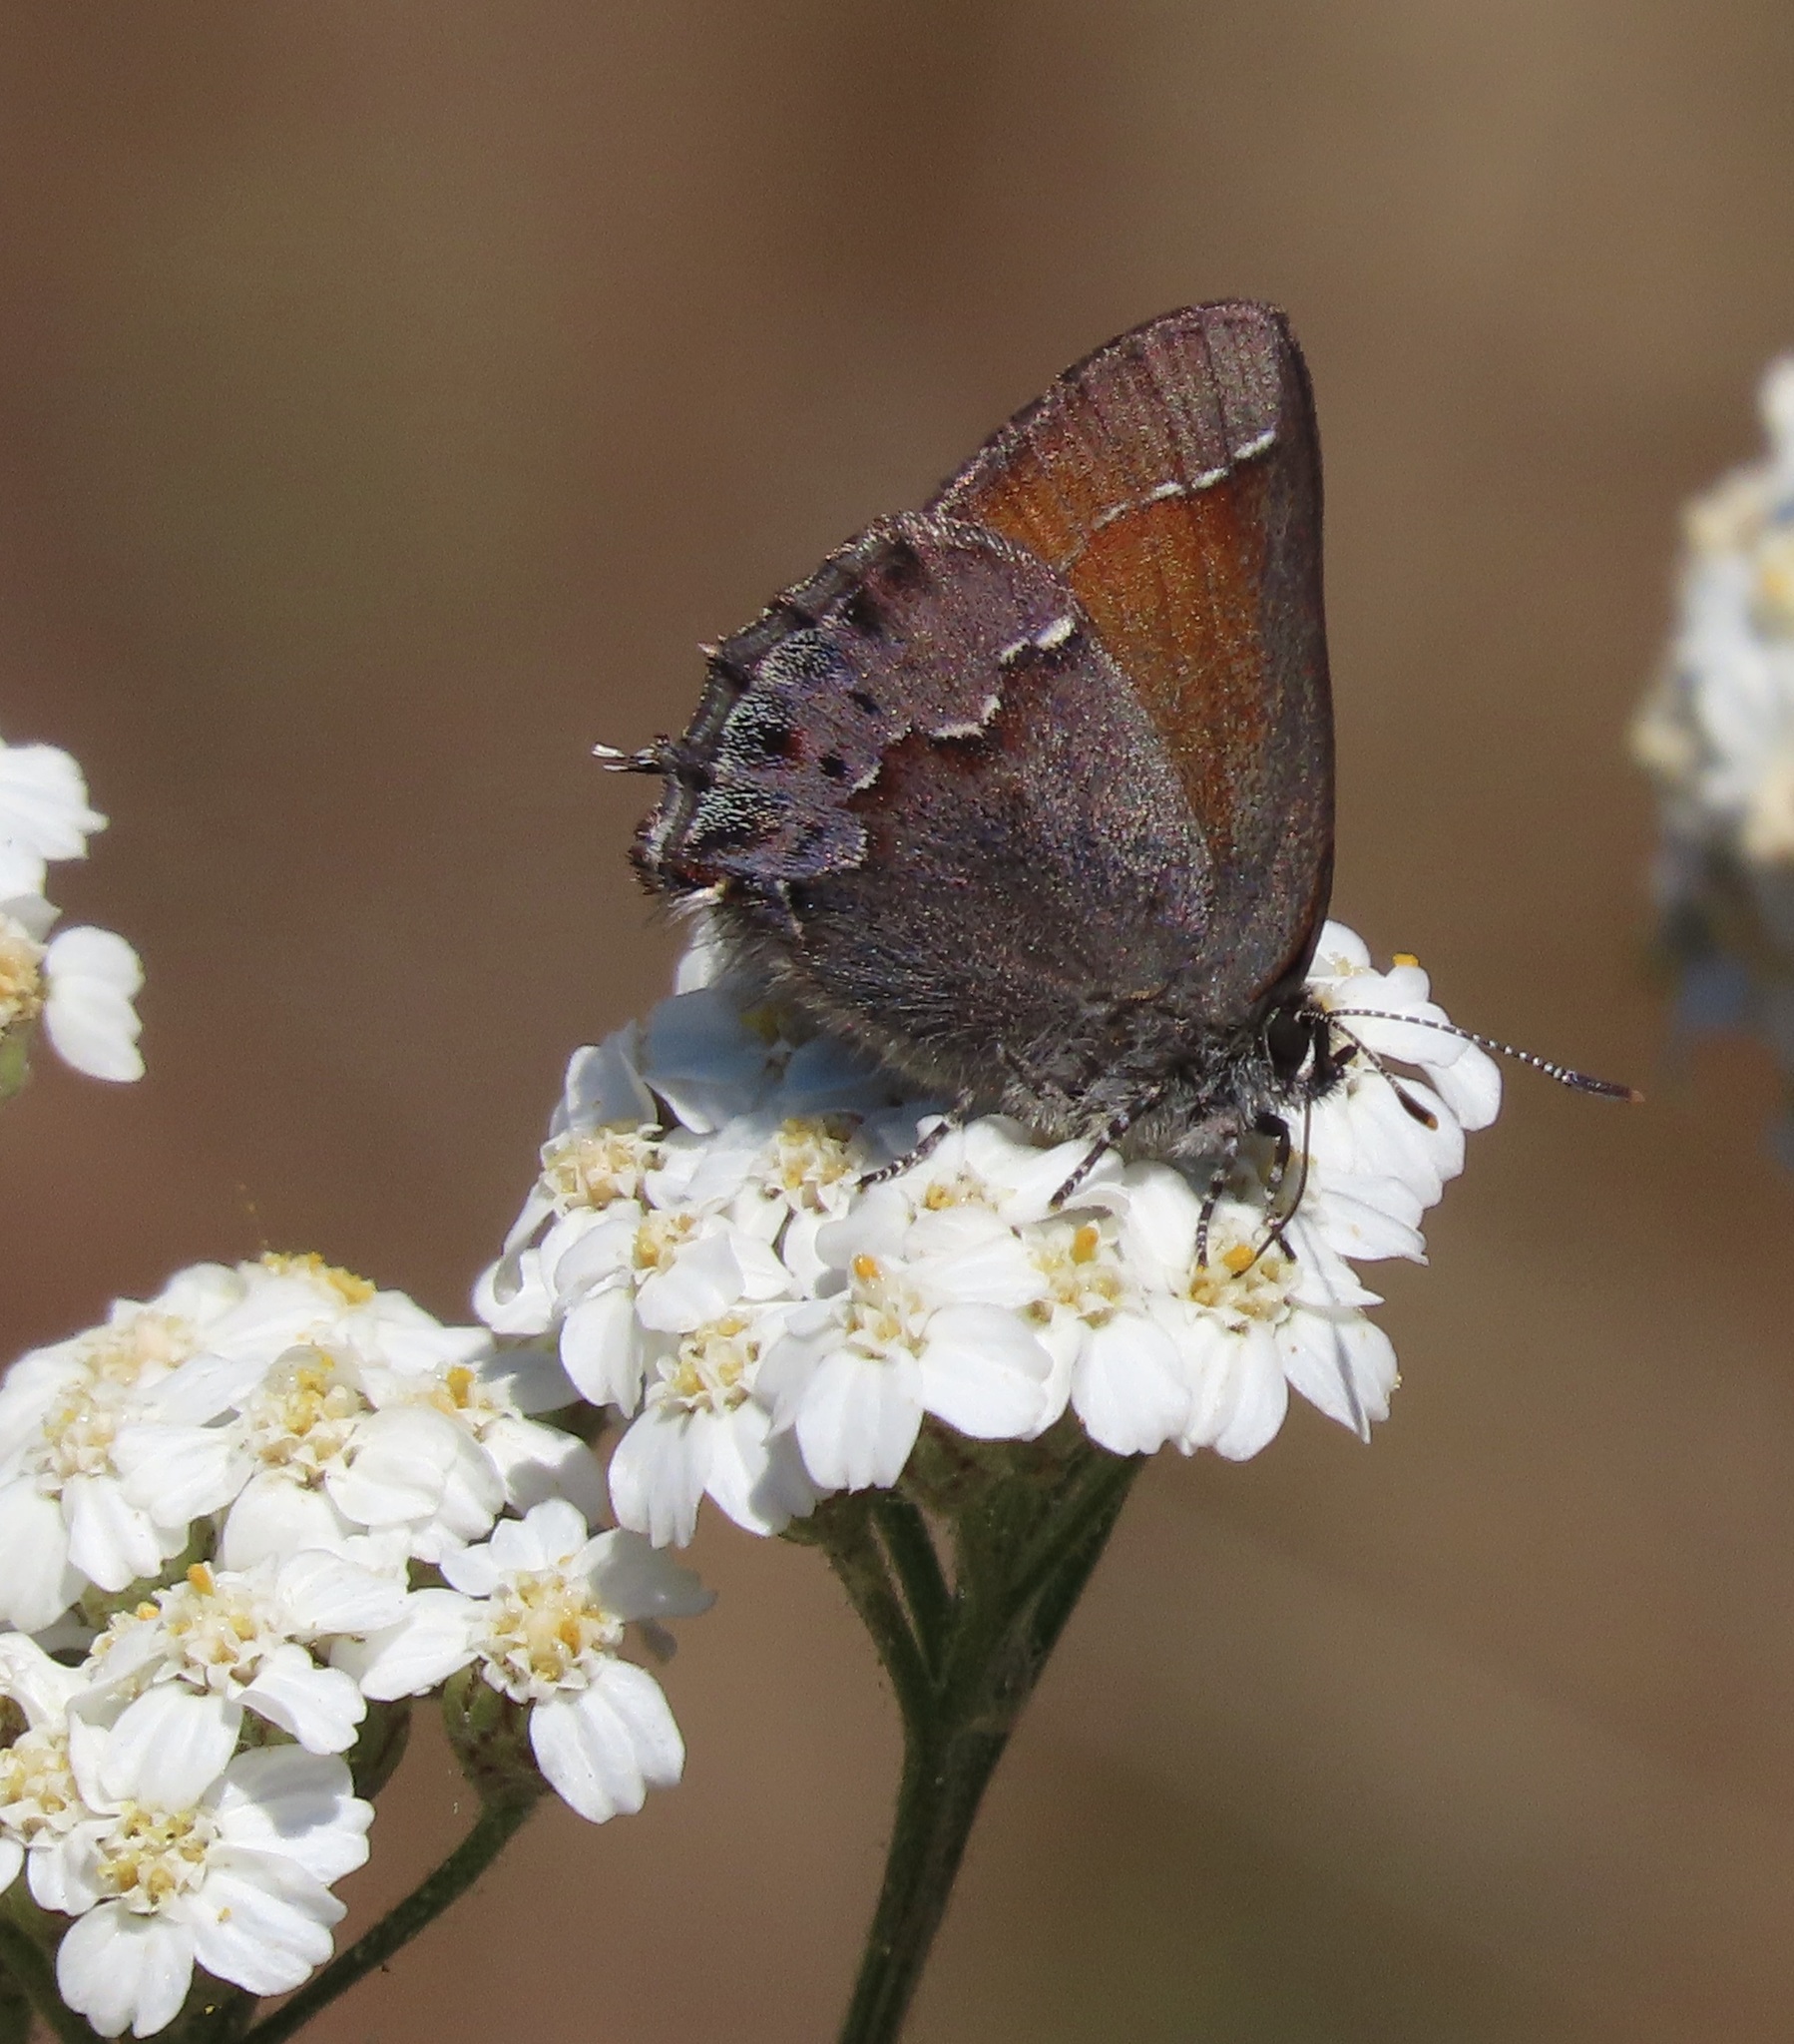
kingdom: Animalia
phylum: Arthropoda
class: Insecta
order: Lepidoptera
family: Lycaenidae
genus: Callophrys
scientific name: Callophrys muiri
